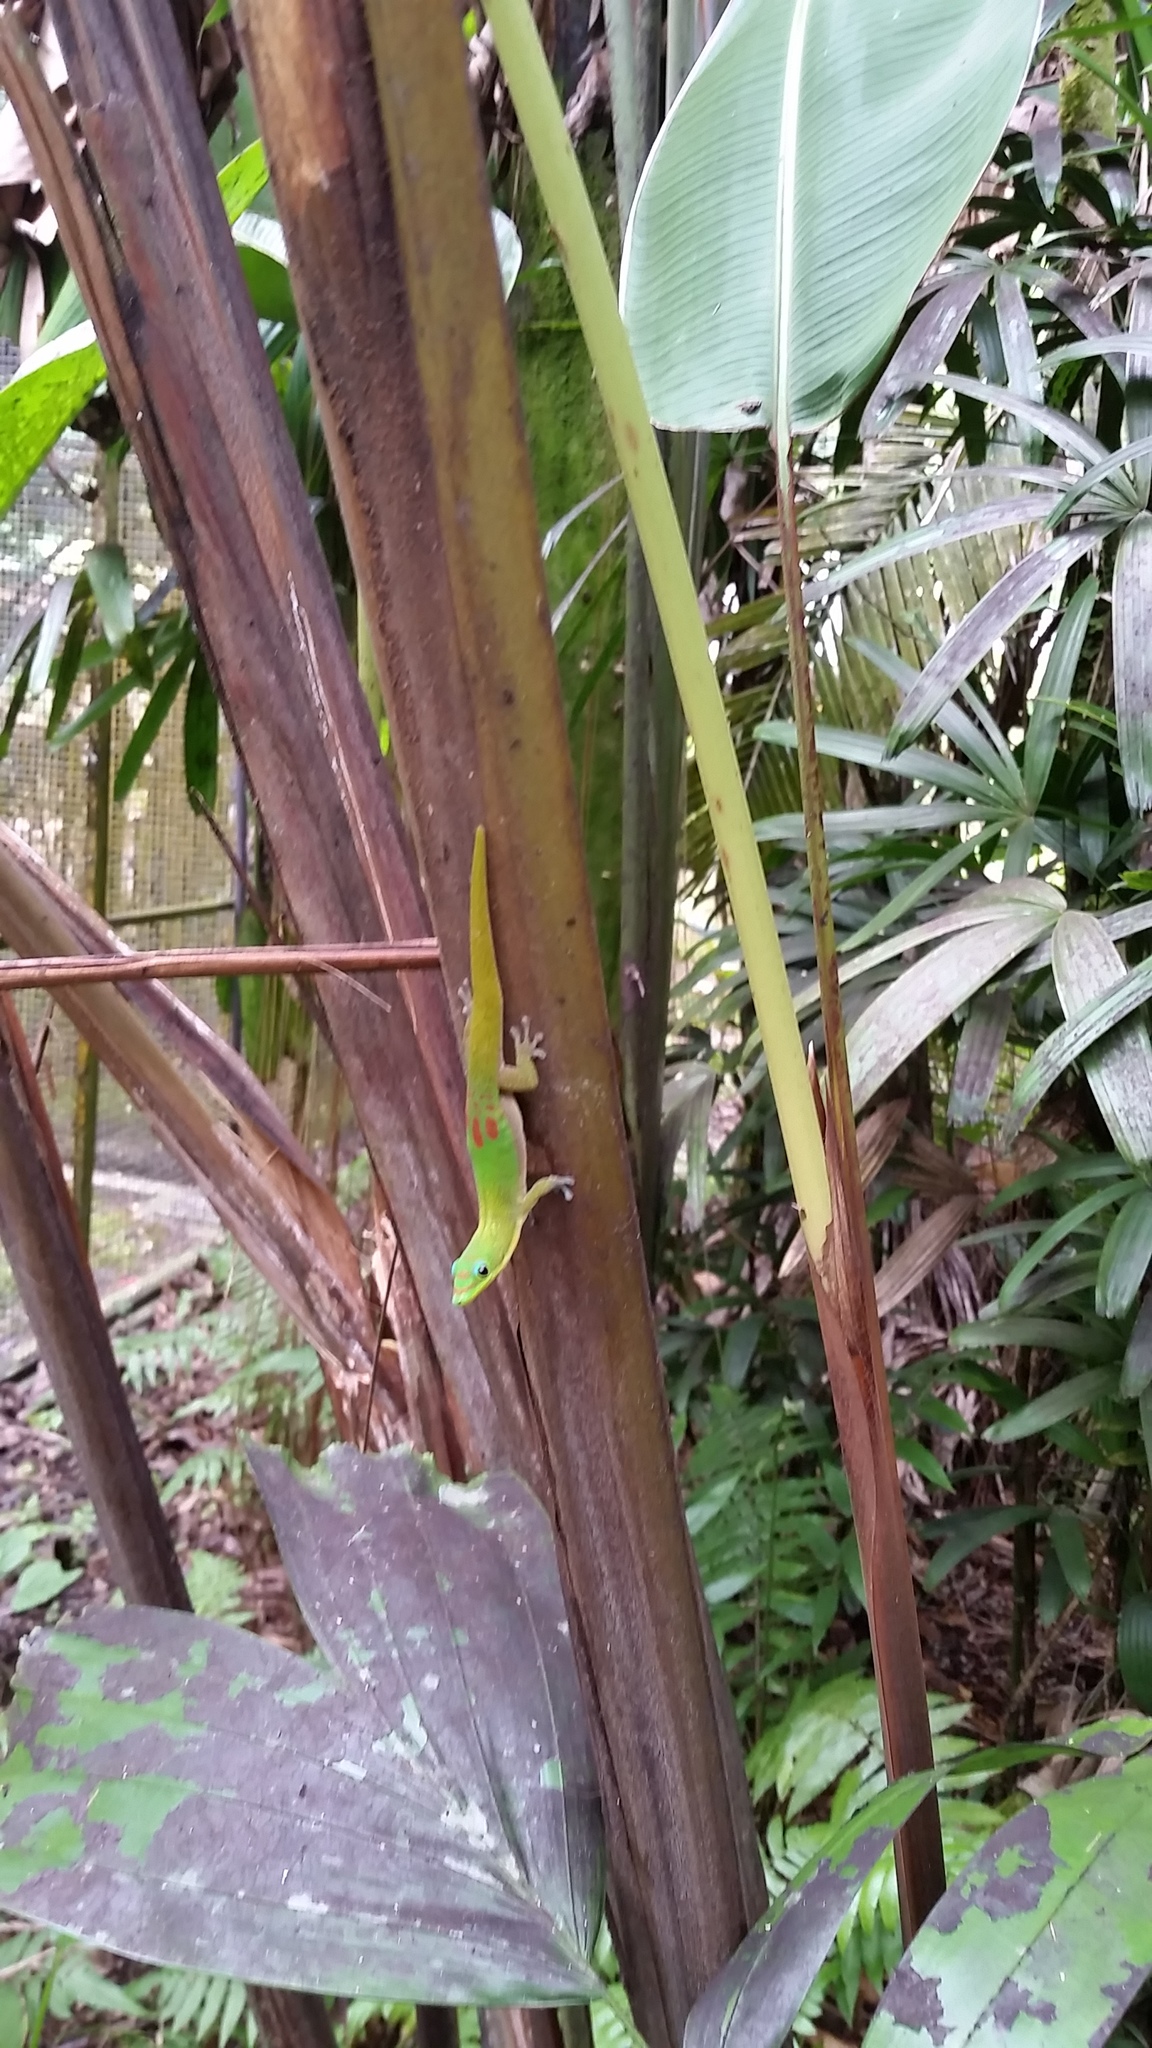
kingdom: Animalia
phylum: Chordata
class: Squamata
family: Gekkonidae
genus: Phelsuma
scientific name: Phelsuma laticauda
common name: Gold dust day gecko
